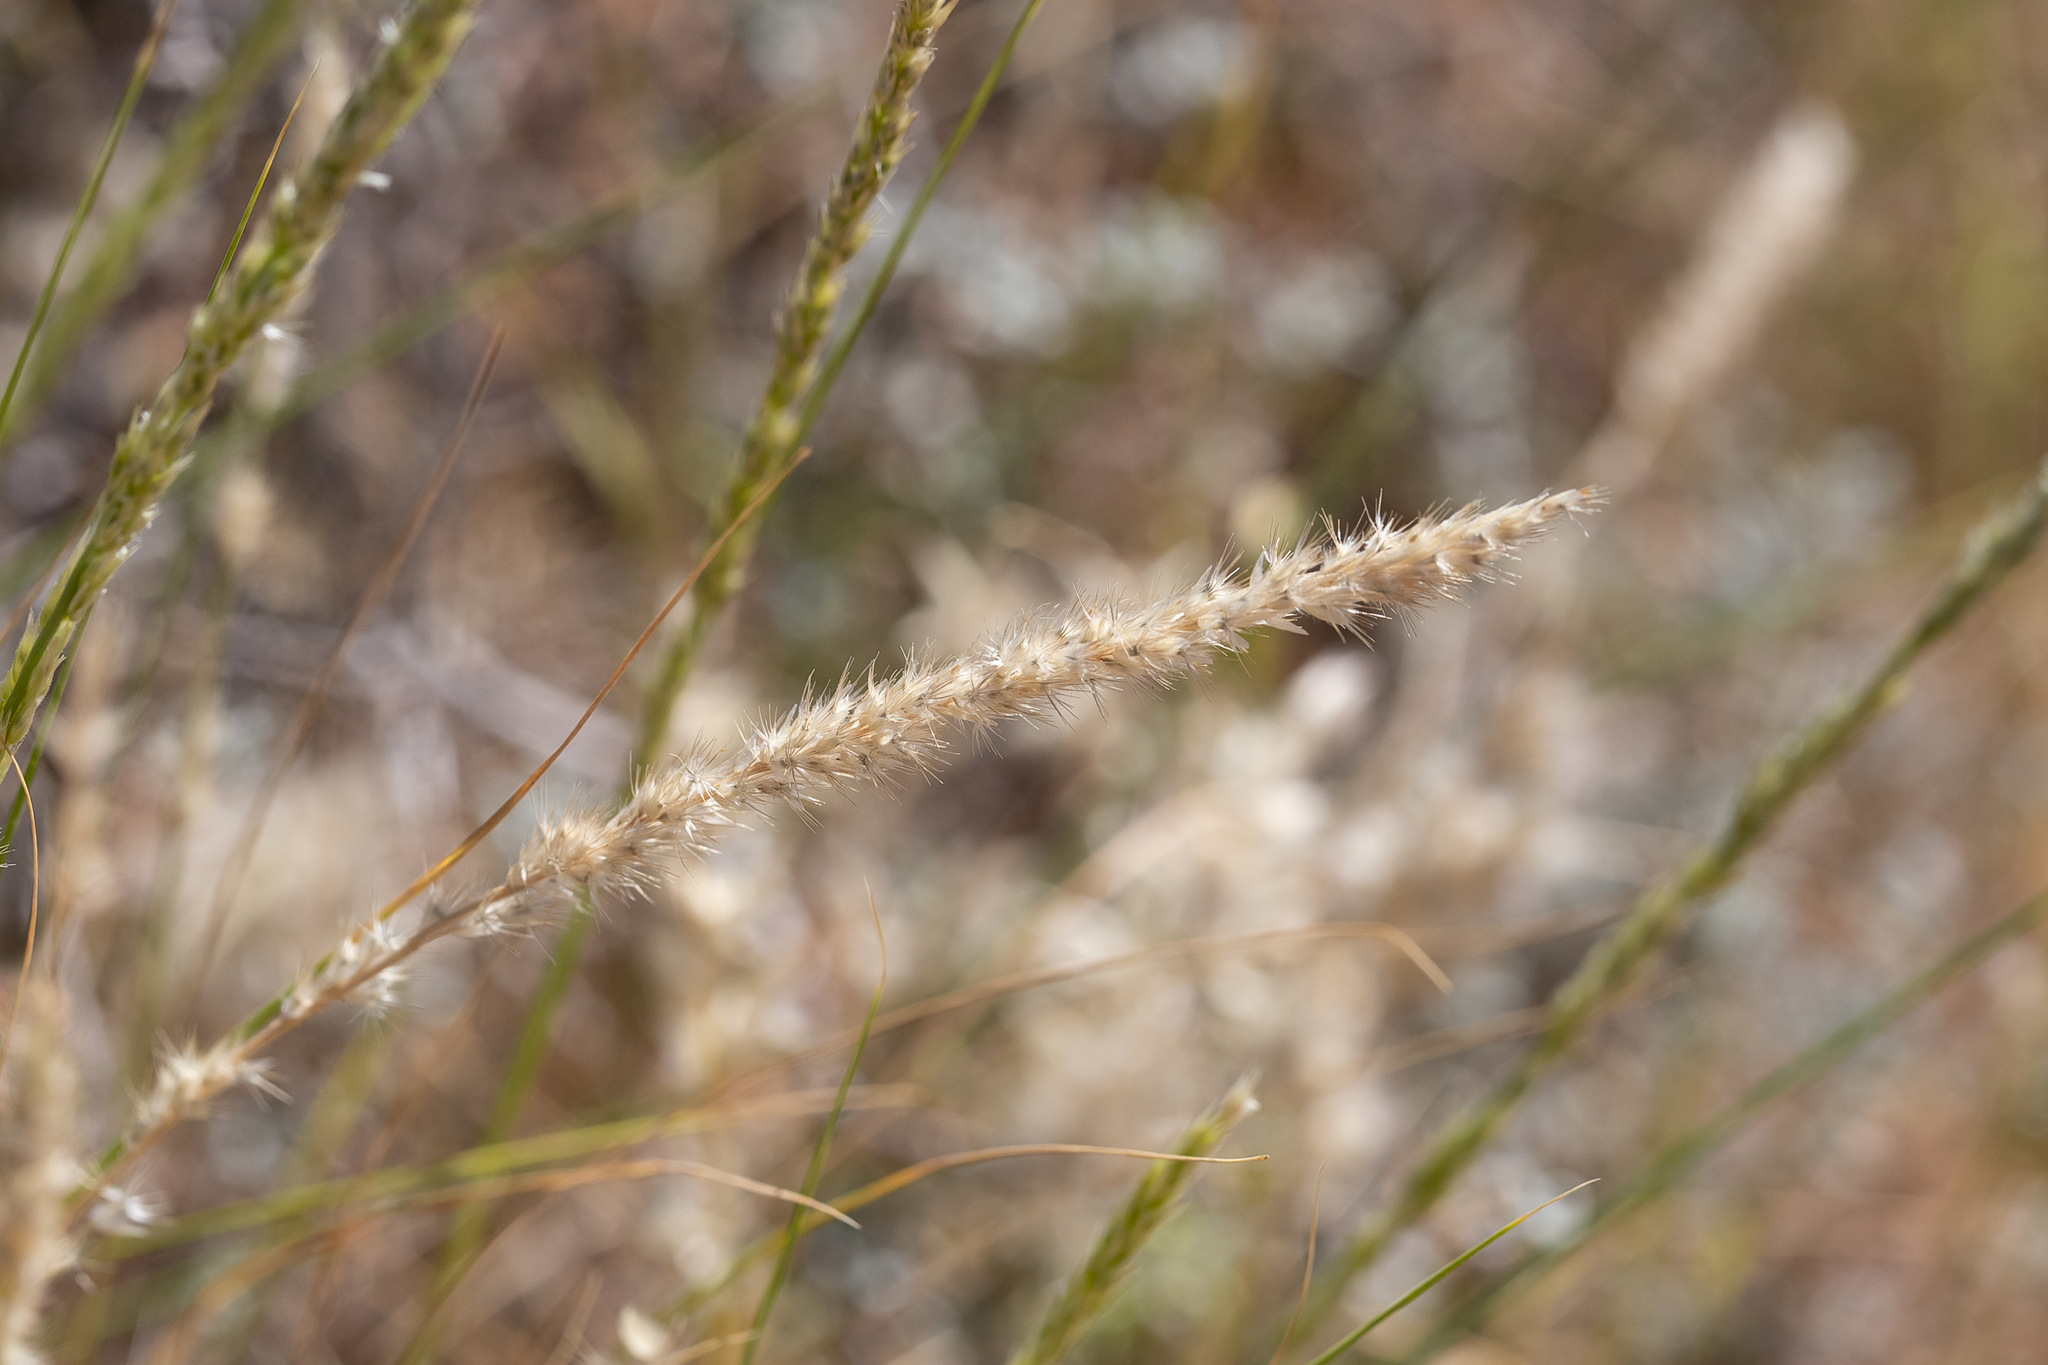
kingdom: Plantae
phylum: Tracheophyta
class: Liliopsida
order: Poales
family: Poaceae
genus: Enneapogon
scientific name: Enneapogon cylindricus
